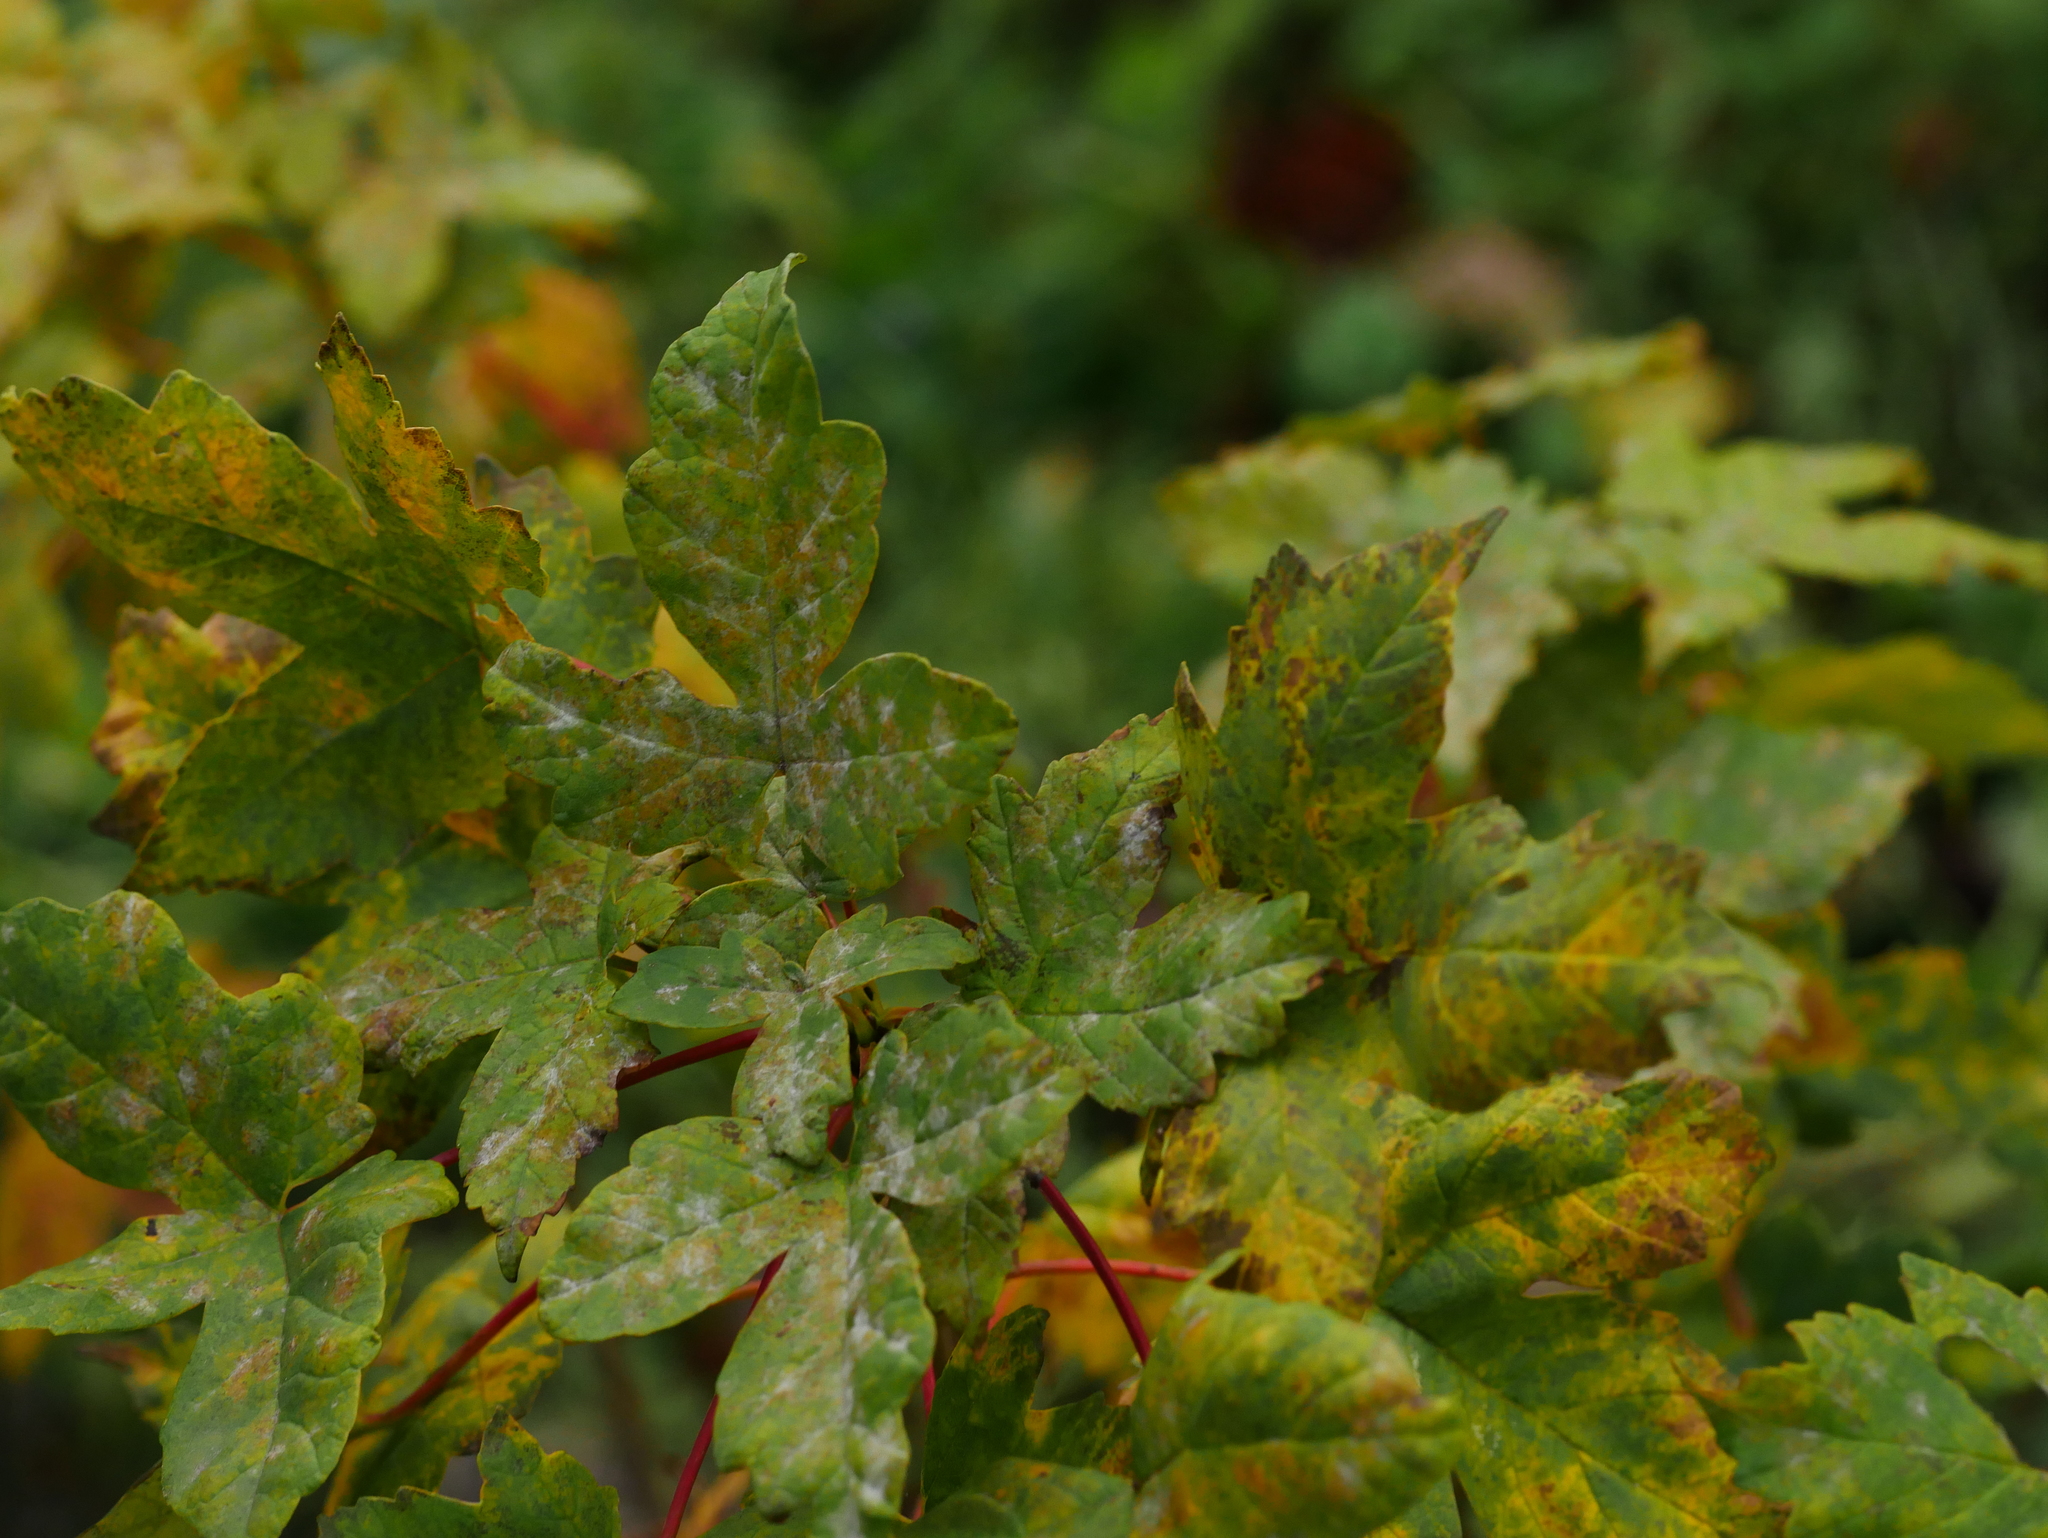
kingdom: Plantae
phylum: Tracheophyta
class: Magnoliopsida
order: Sapindales
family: Sapindaceae
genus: Acer
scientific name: Acer pseudoplatanus
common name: Sycamore
